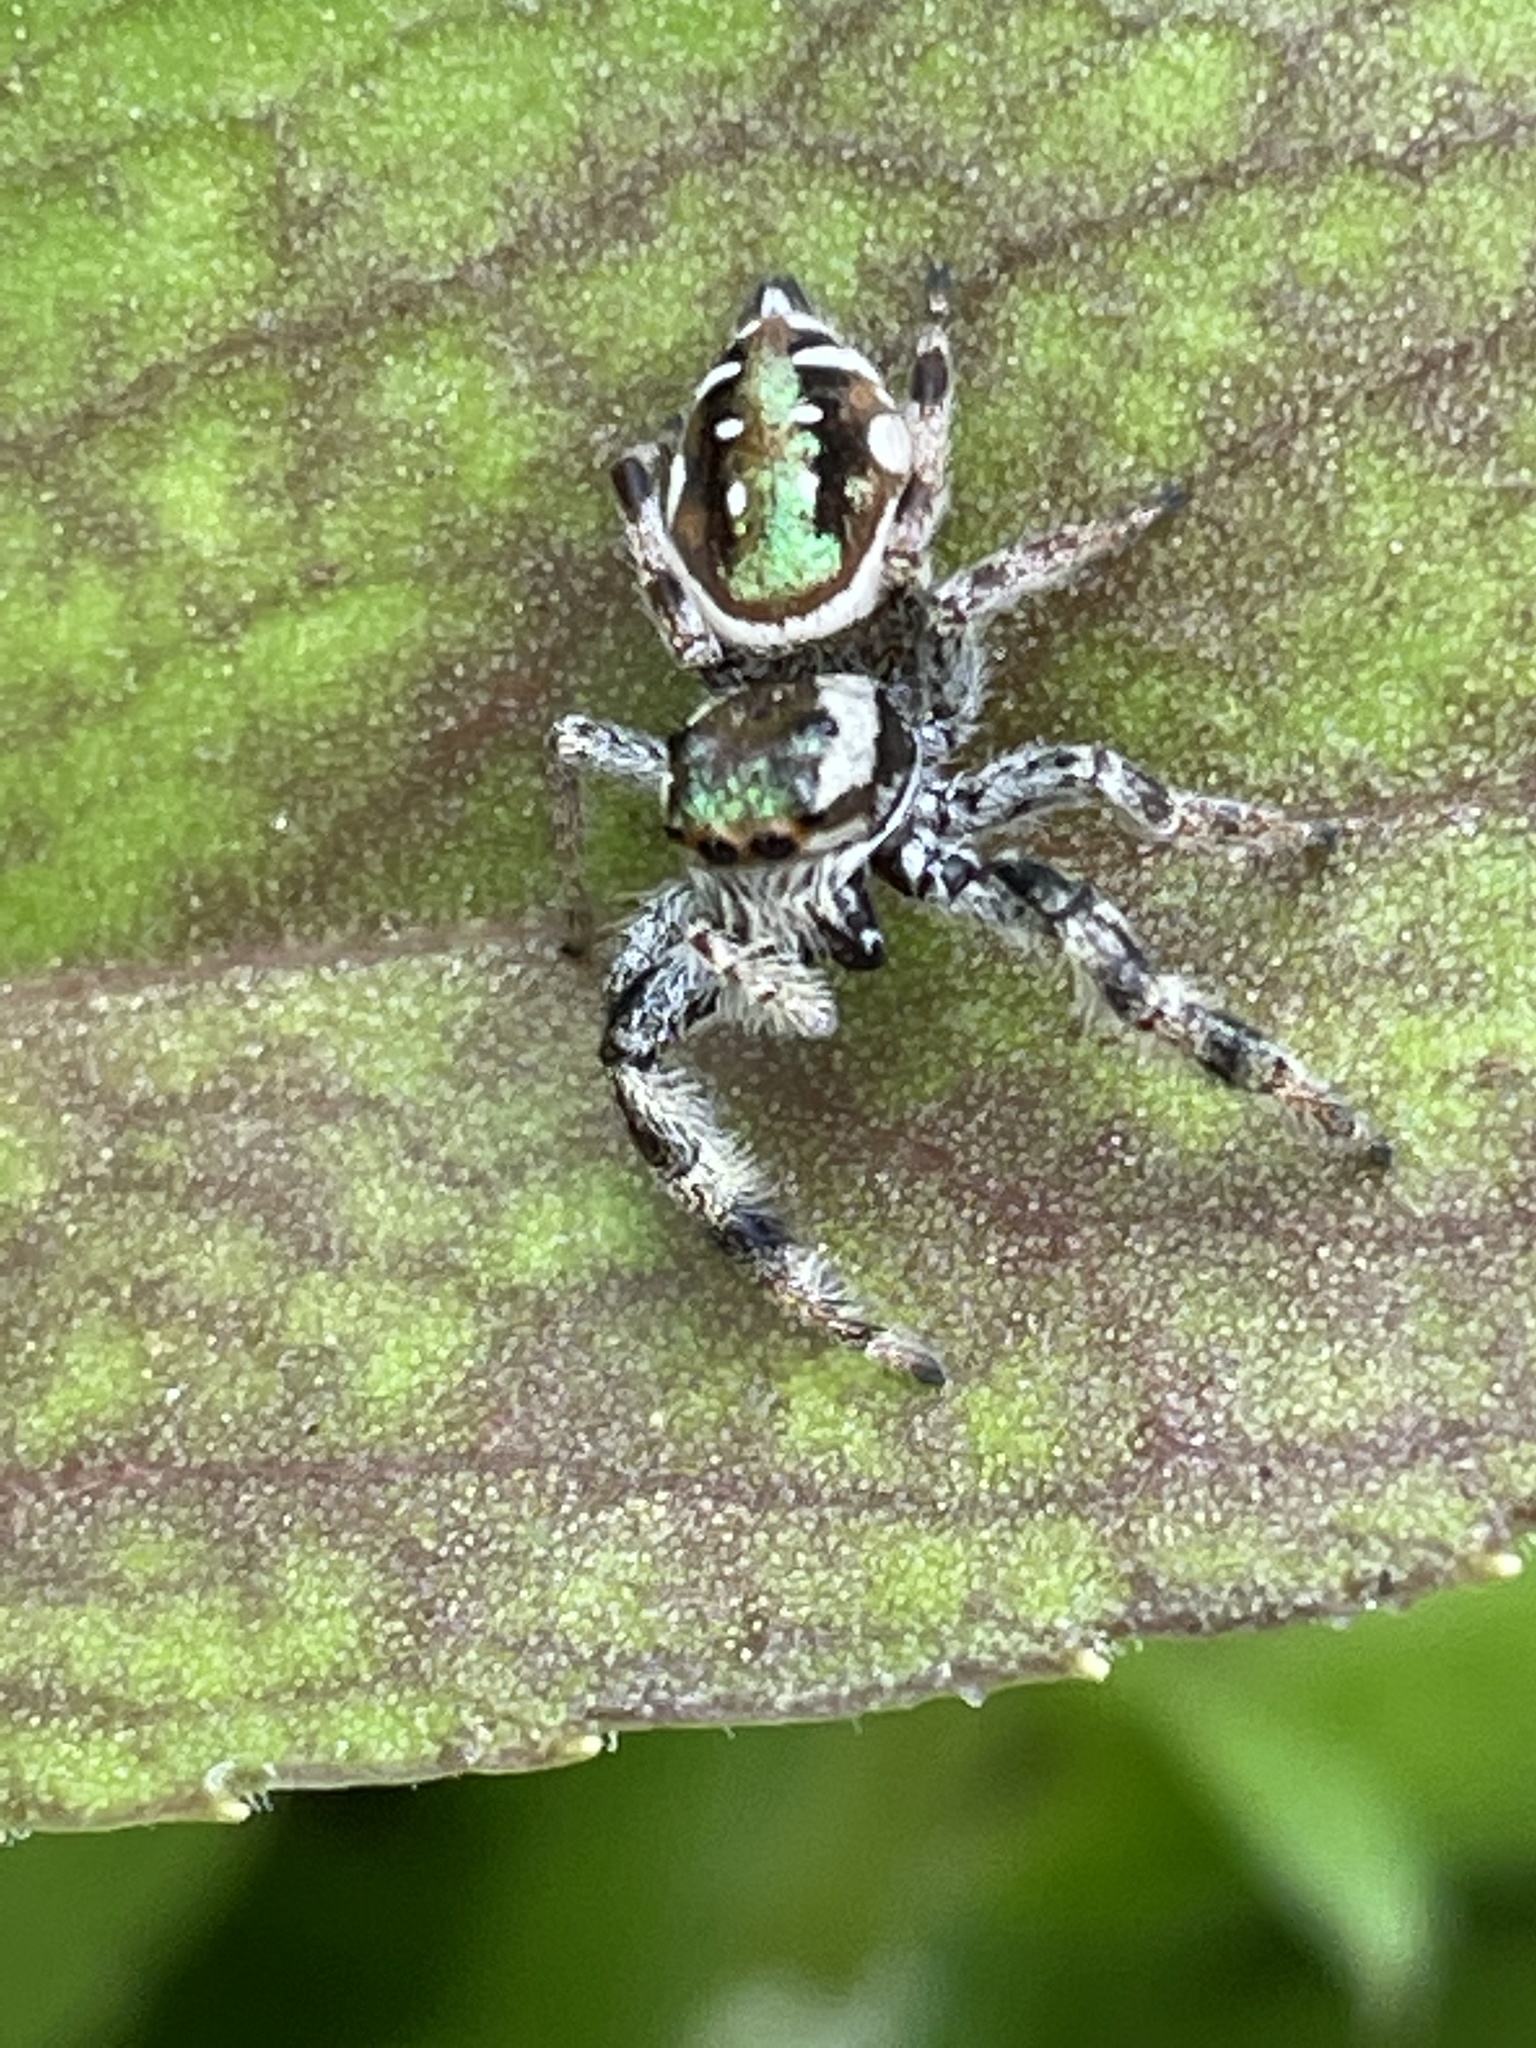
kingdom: Animalia
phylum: Arthropoda
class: Arachnida
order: Araneae
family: Salticidae
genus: Paraphidippus
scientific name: Paraphidippus aurantius
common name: Jumping spiders
